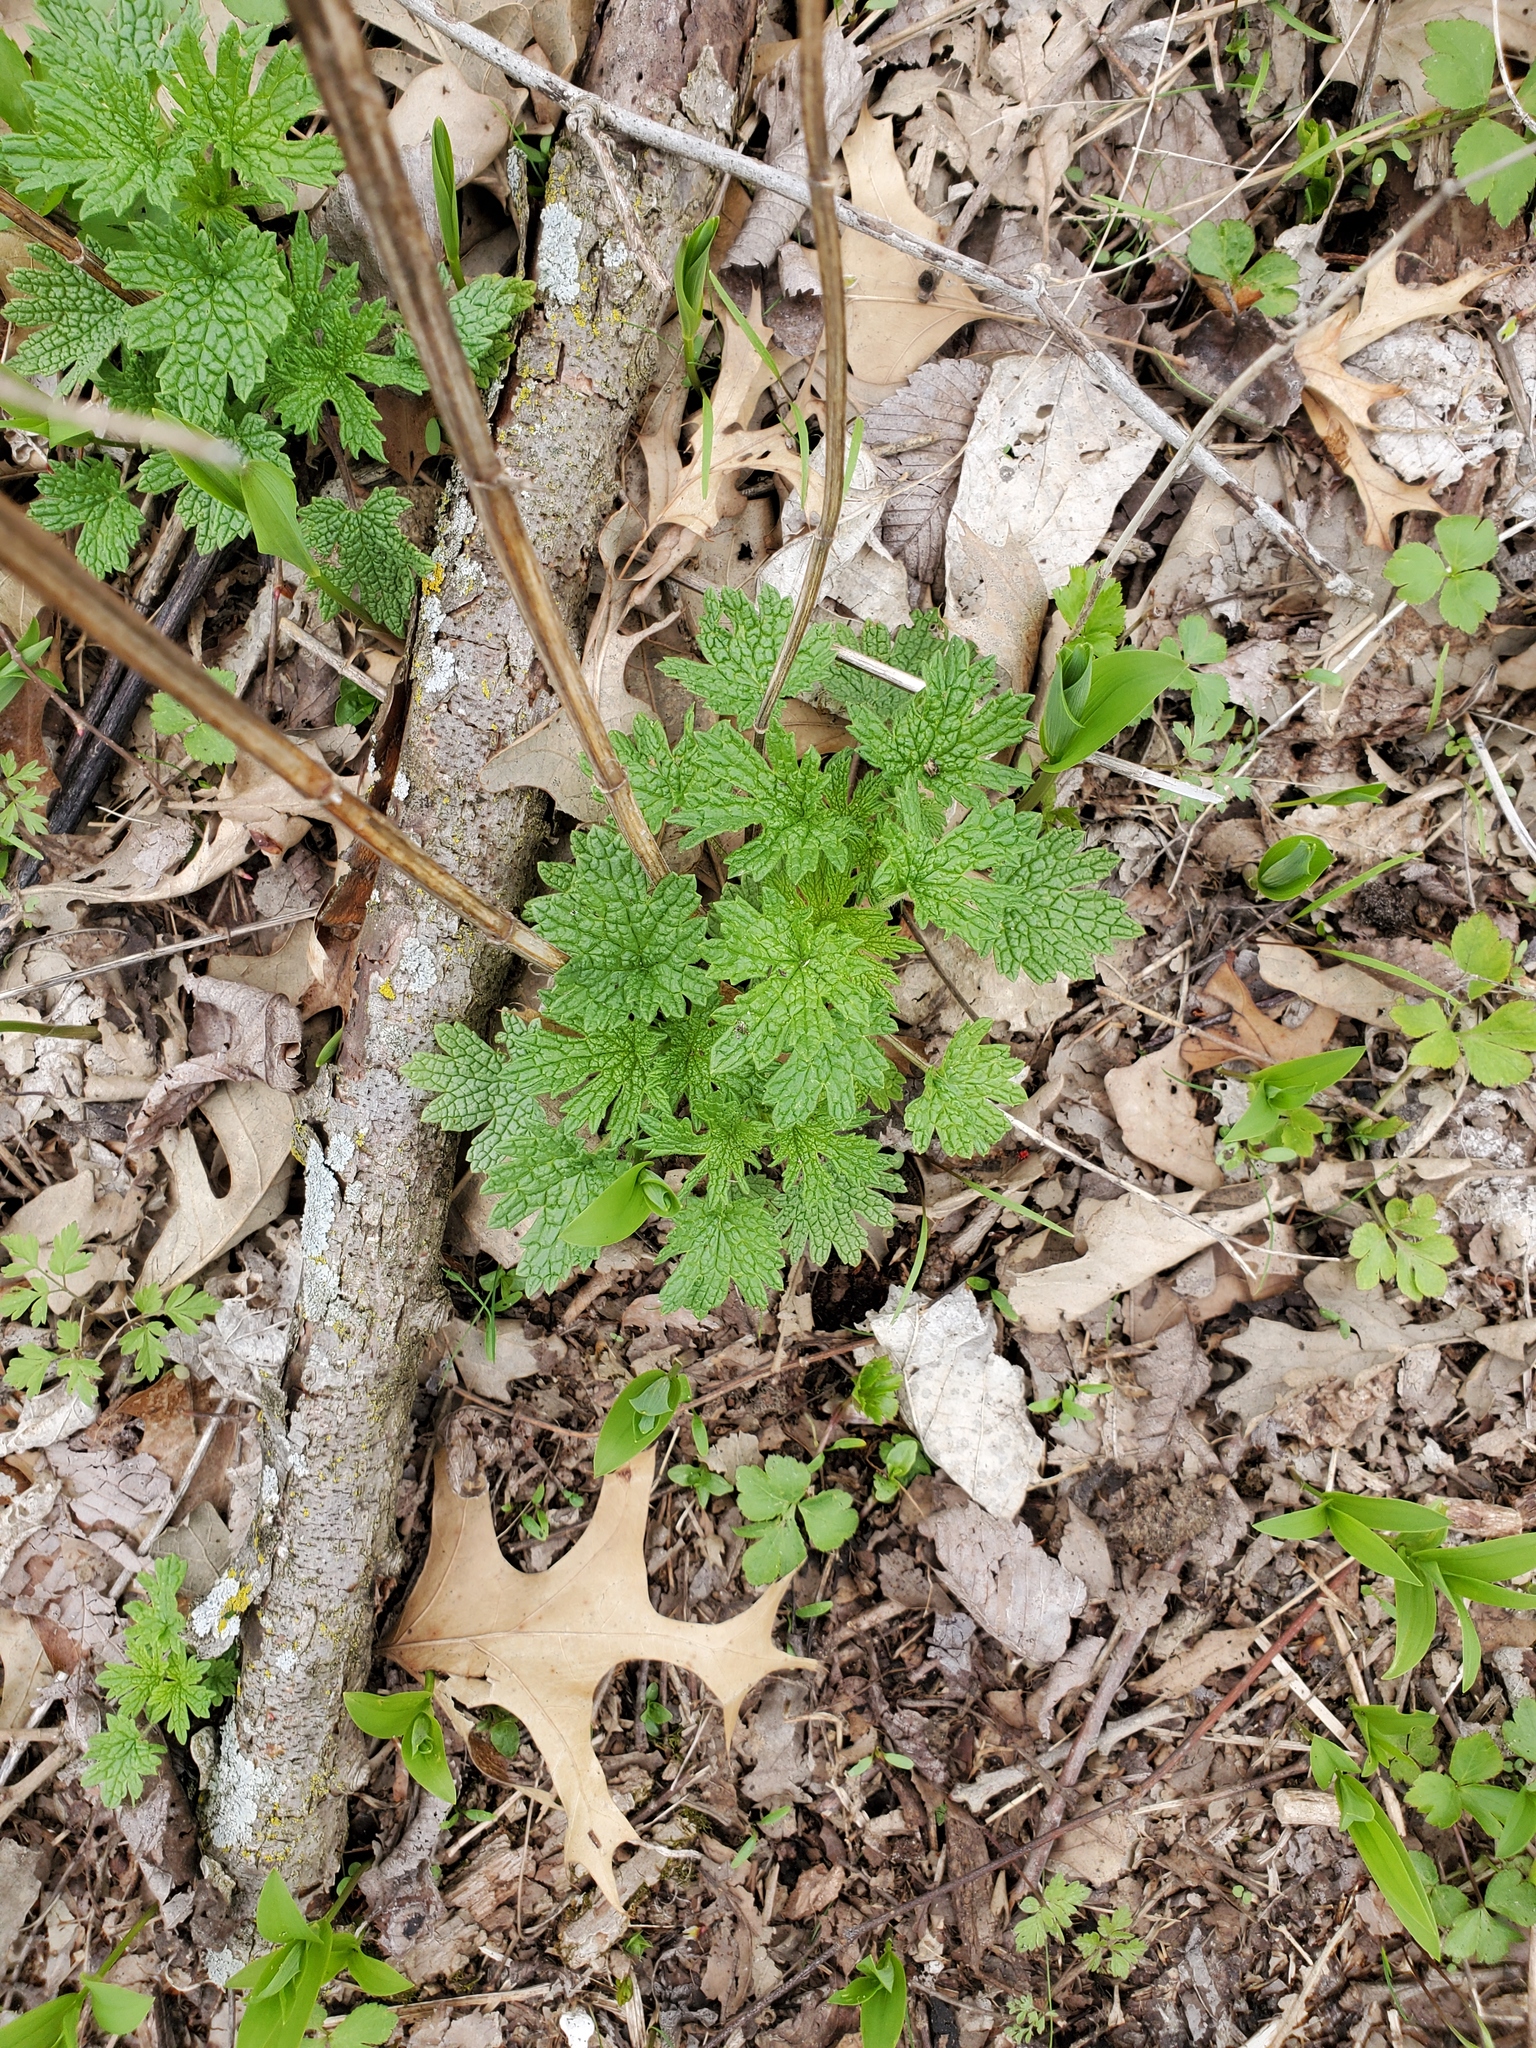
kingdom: Plantae
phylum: Tracheophyta
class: Magnoliopsida
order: Lamiales
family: Lamiaceae
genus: Leonurus
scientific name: Leonurus cardiaca
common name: Motherwort
